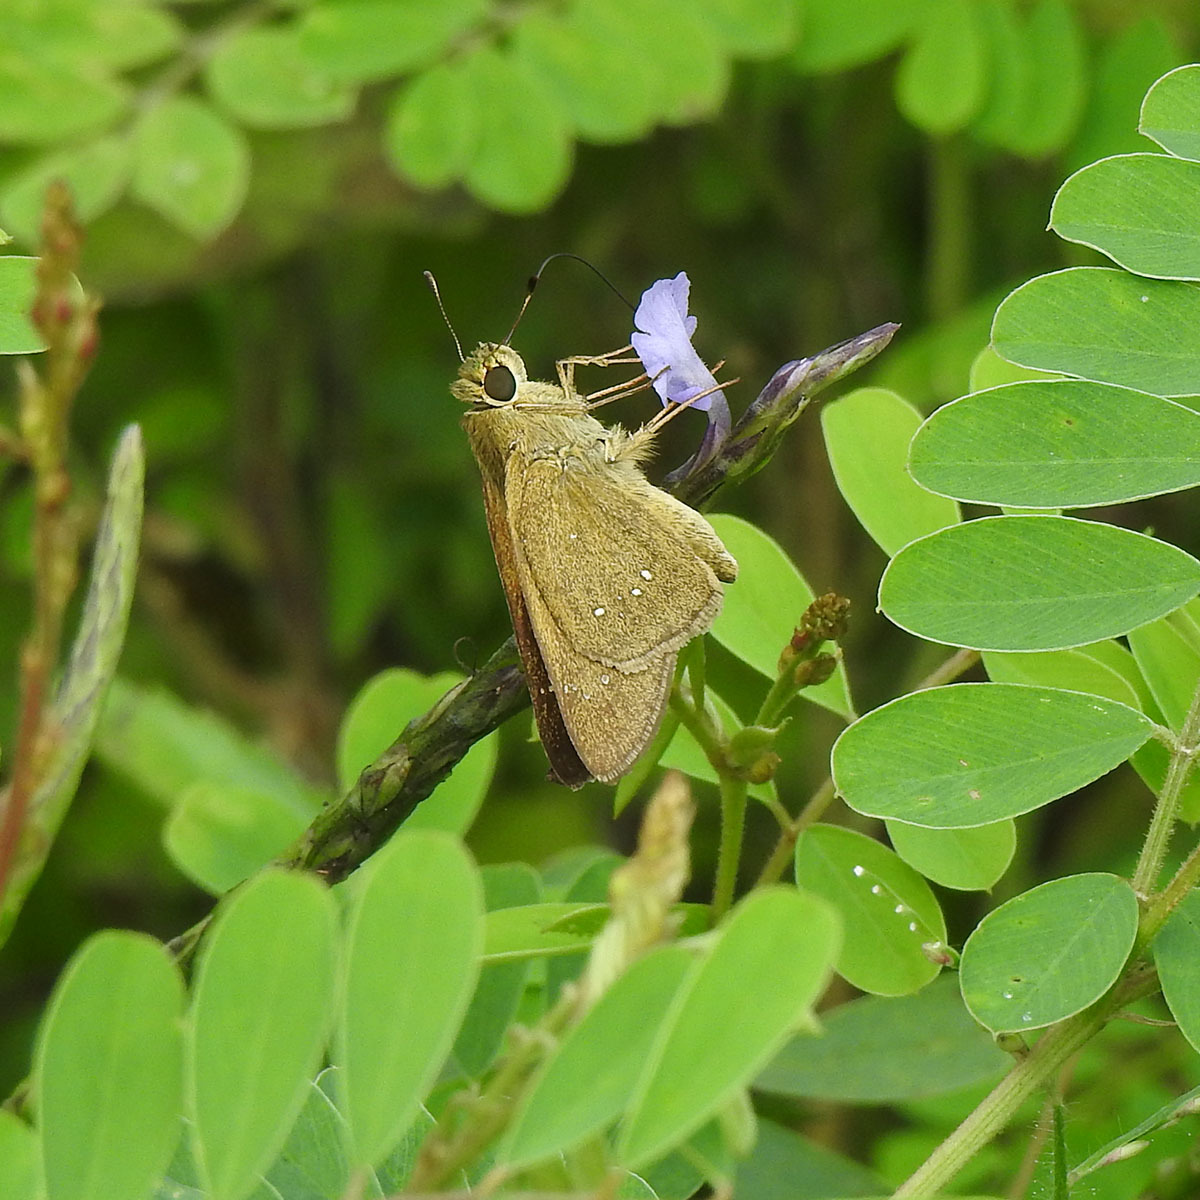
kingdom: Animalia
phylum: Arthropoda
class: Insecta
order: Lepidoptera
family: Hesperiidae
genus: Borbo
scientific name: Borbo cinnara
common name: Formosan swift
